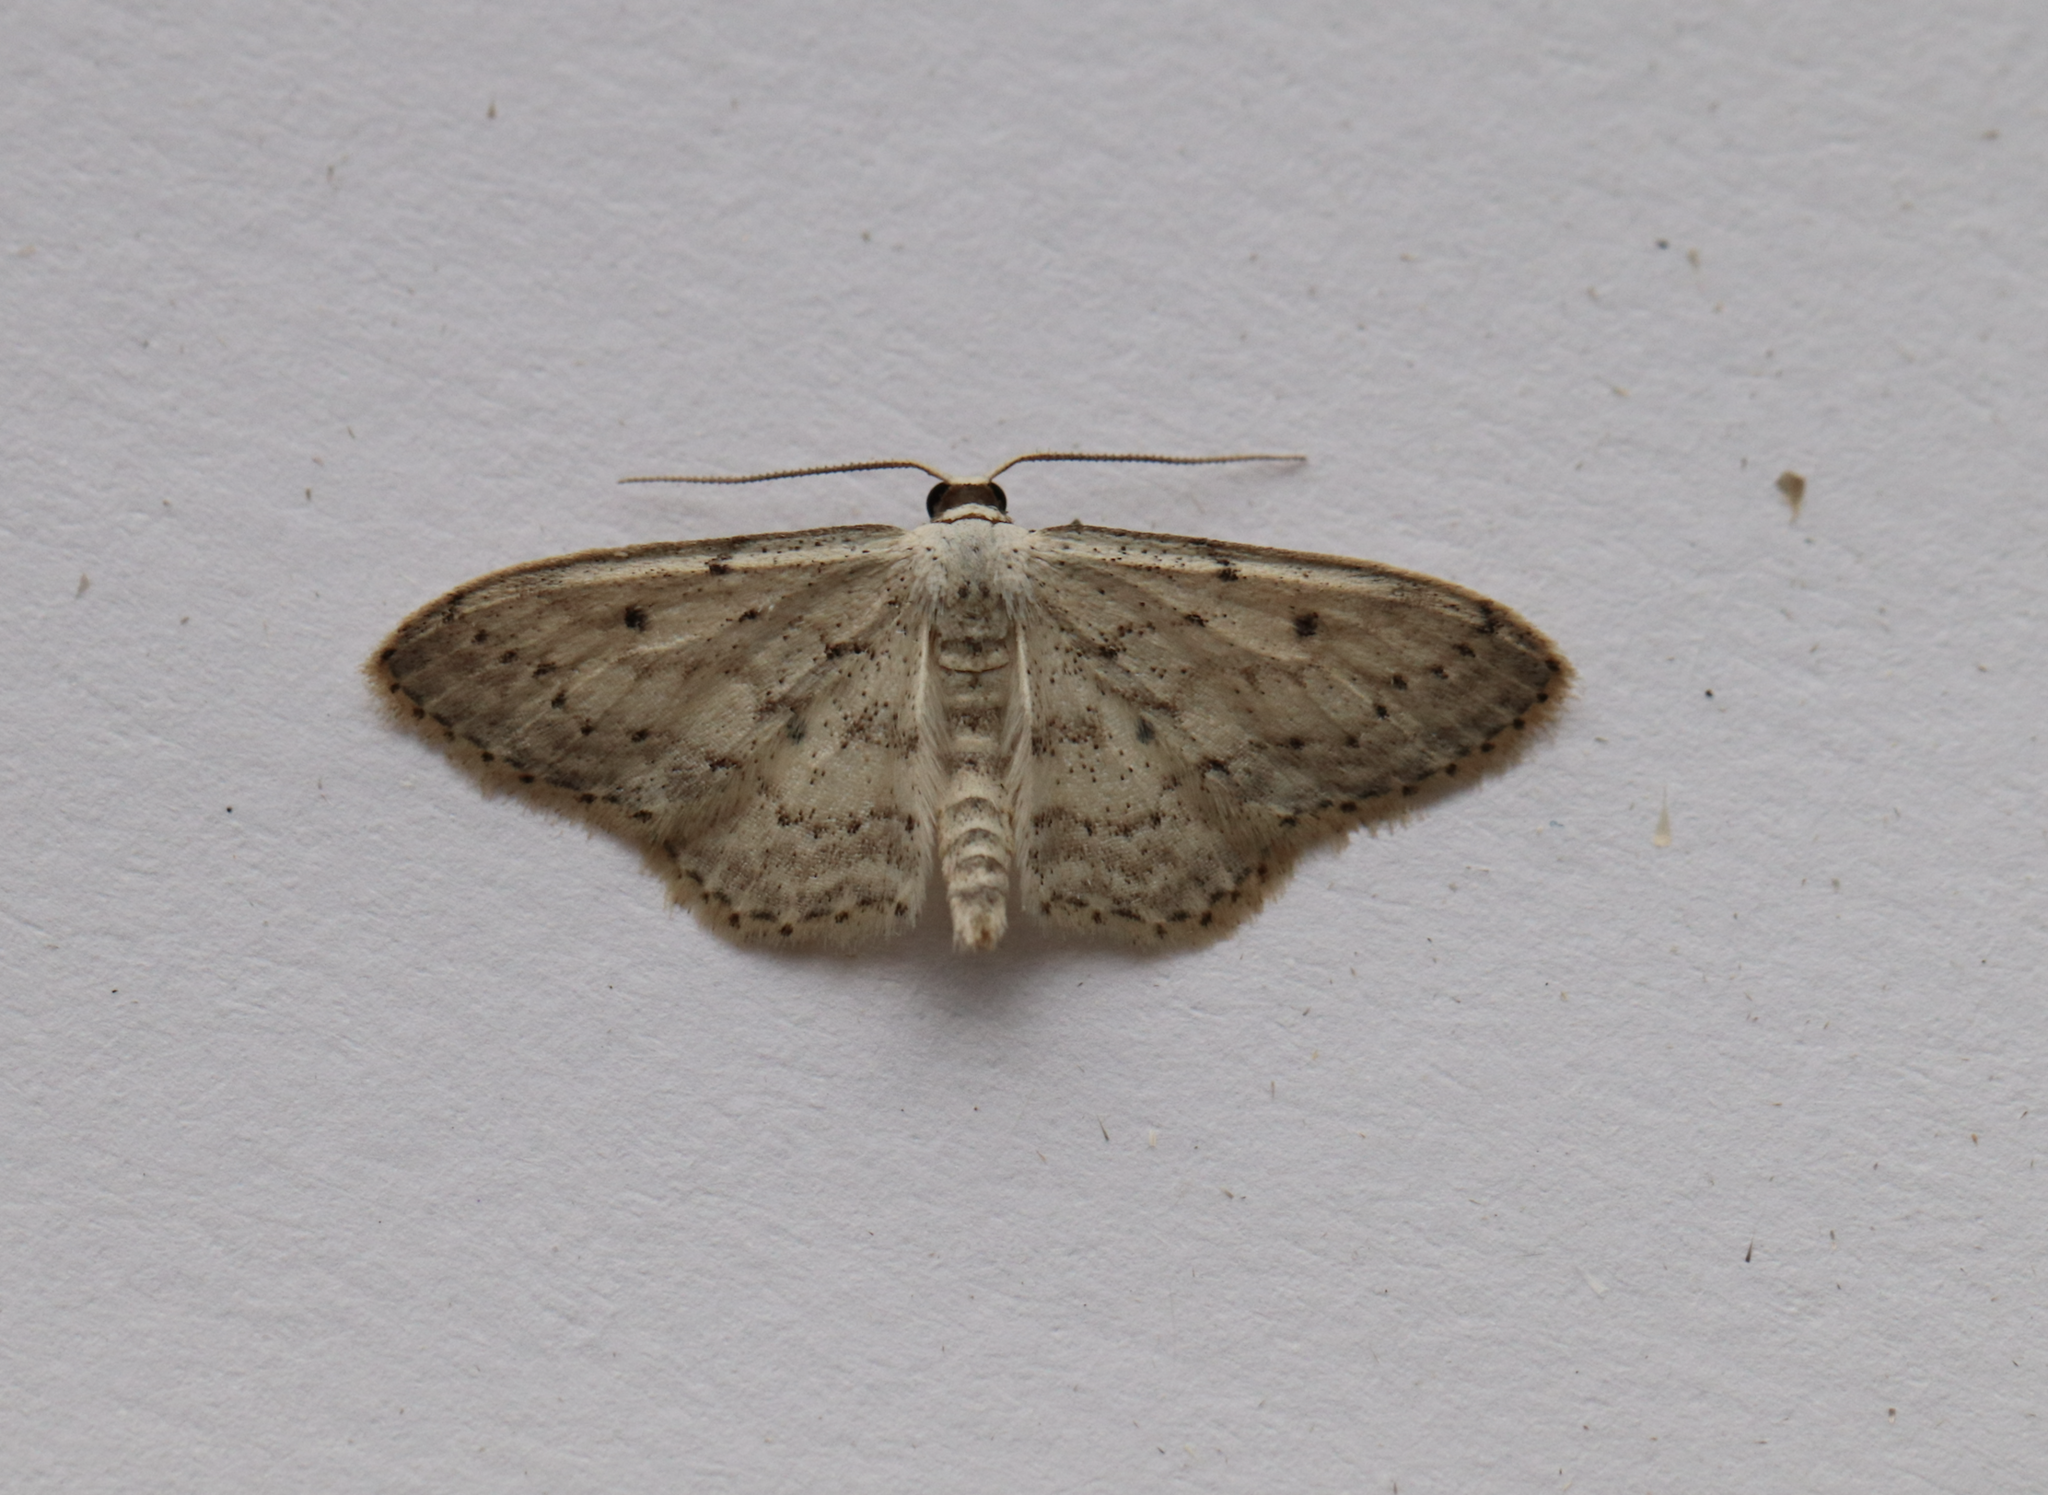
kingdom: Animalia
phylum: Arthropoda
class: Insecta
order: Lepidoptera
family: Geometridae
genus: Idaea
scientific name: Idaea seriata
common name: Small dusty wave
